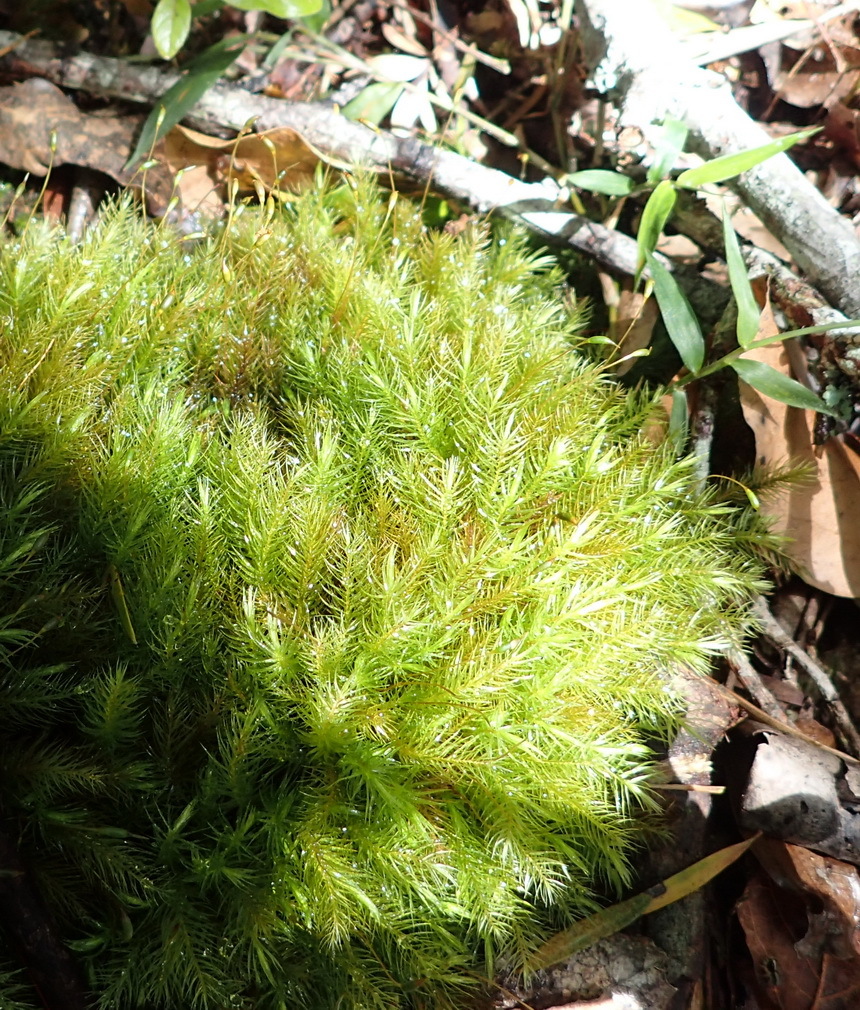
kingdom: Plantae
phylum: Bryophyta
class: Bryopsida
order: Rhizogoniales
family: Calomniaceae
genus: Pyrrhobryum
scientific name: Pyrrhobryum spiniforme
